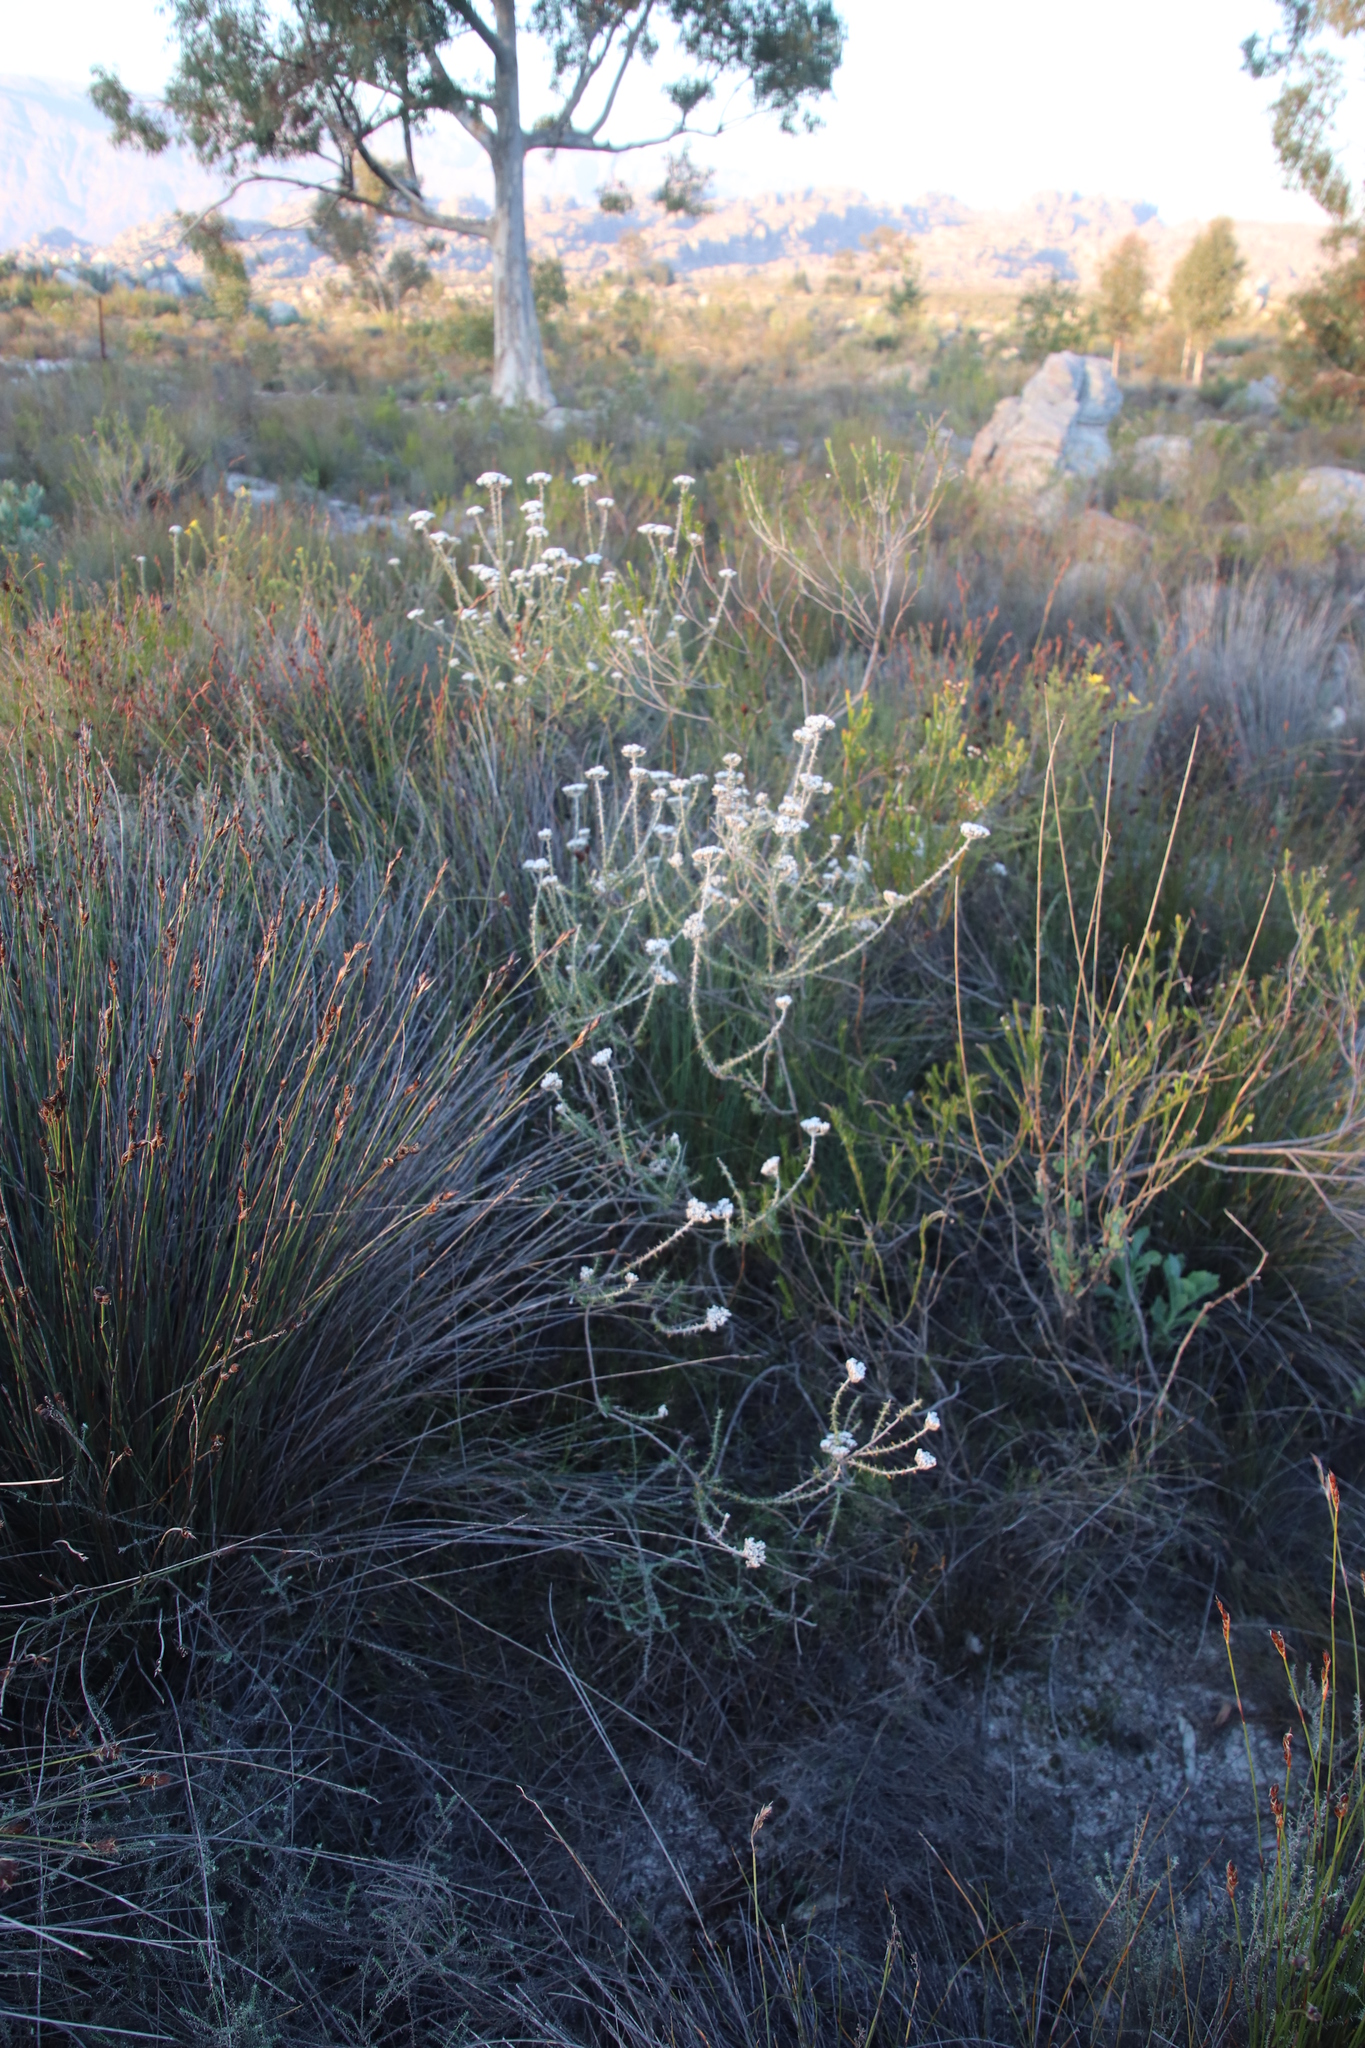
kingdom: Plantae
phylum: Tracheophyta
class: Magnoliopsida
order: Asterales
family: Asteraceae
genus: Metalasia
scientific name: Metalasia densa
